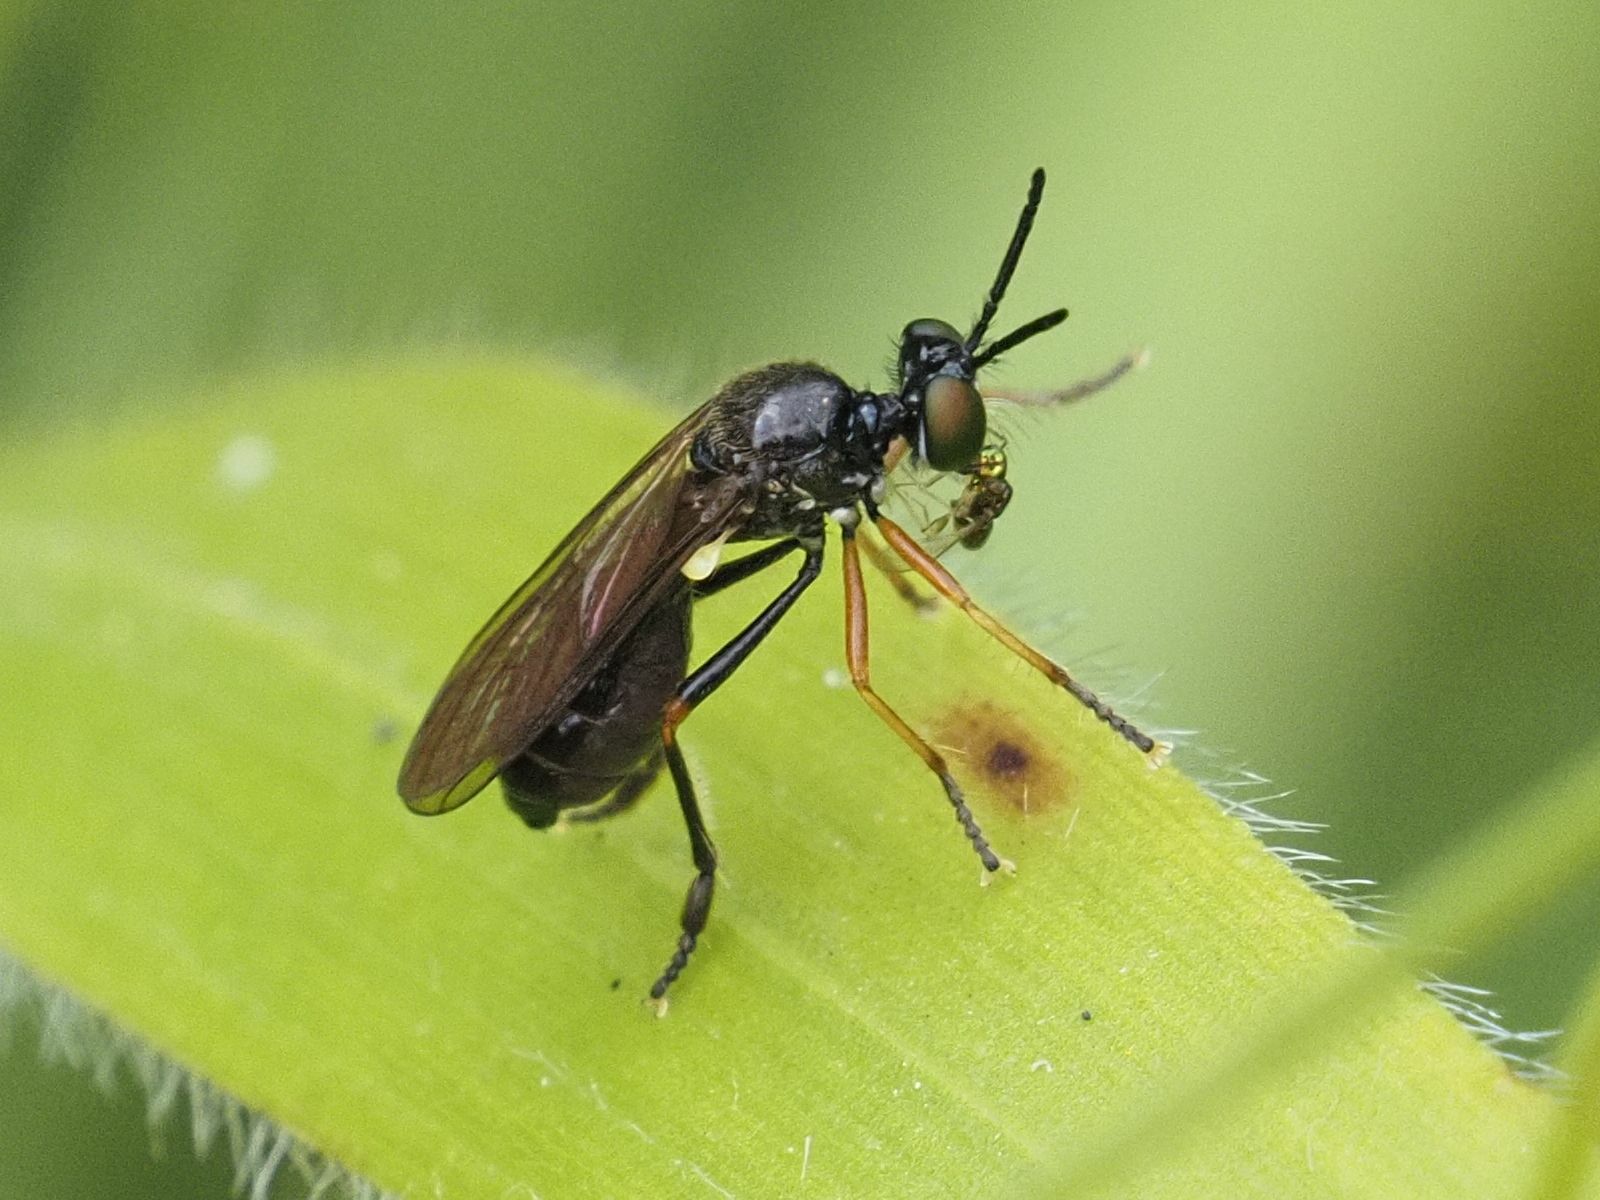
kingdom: Animalia
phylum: Arthropoda
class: Insecta
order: Diptera
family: Asilidae
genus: Dioctria
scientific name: Dioctria longicornis
